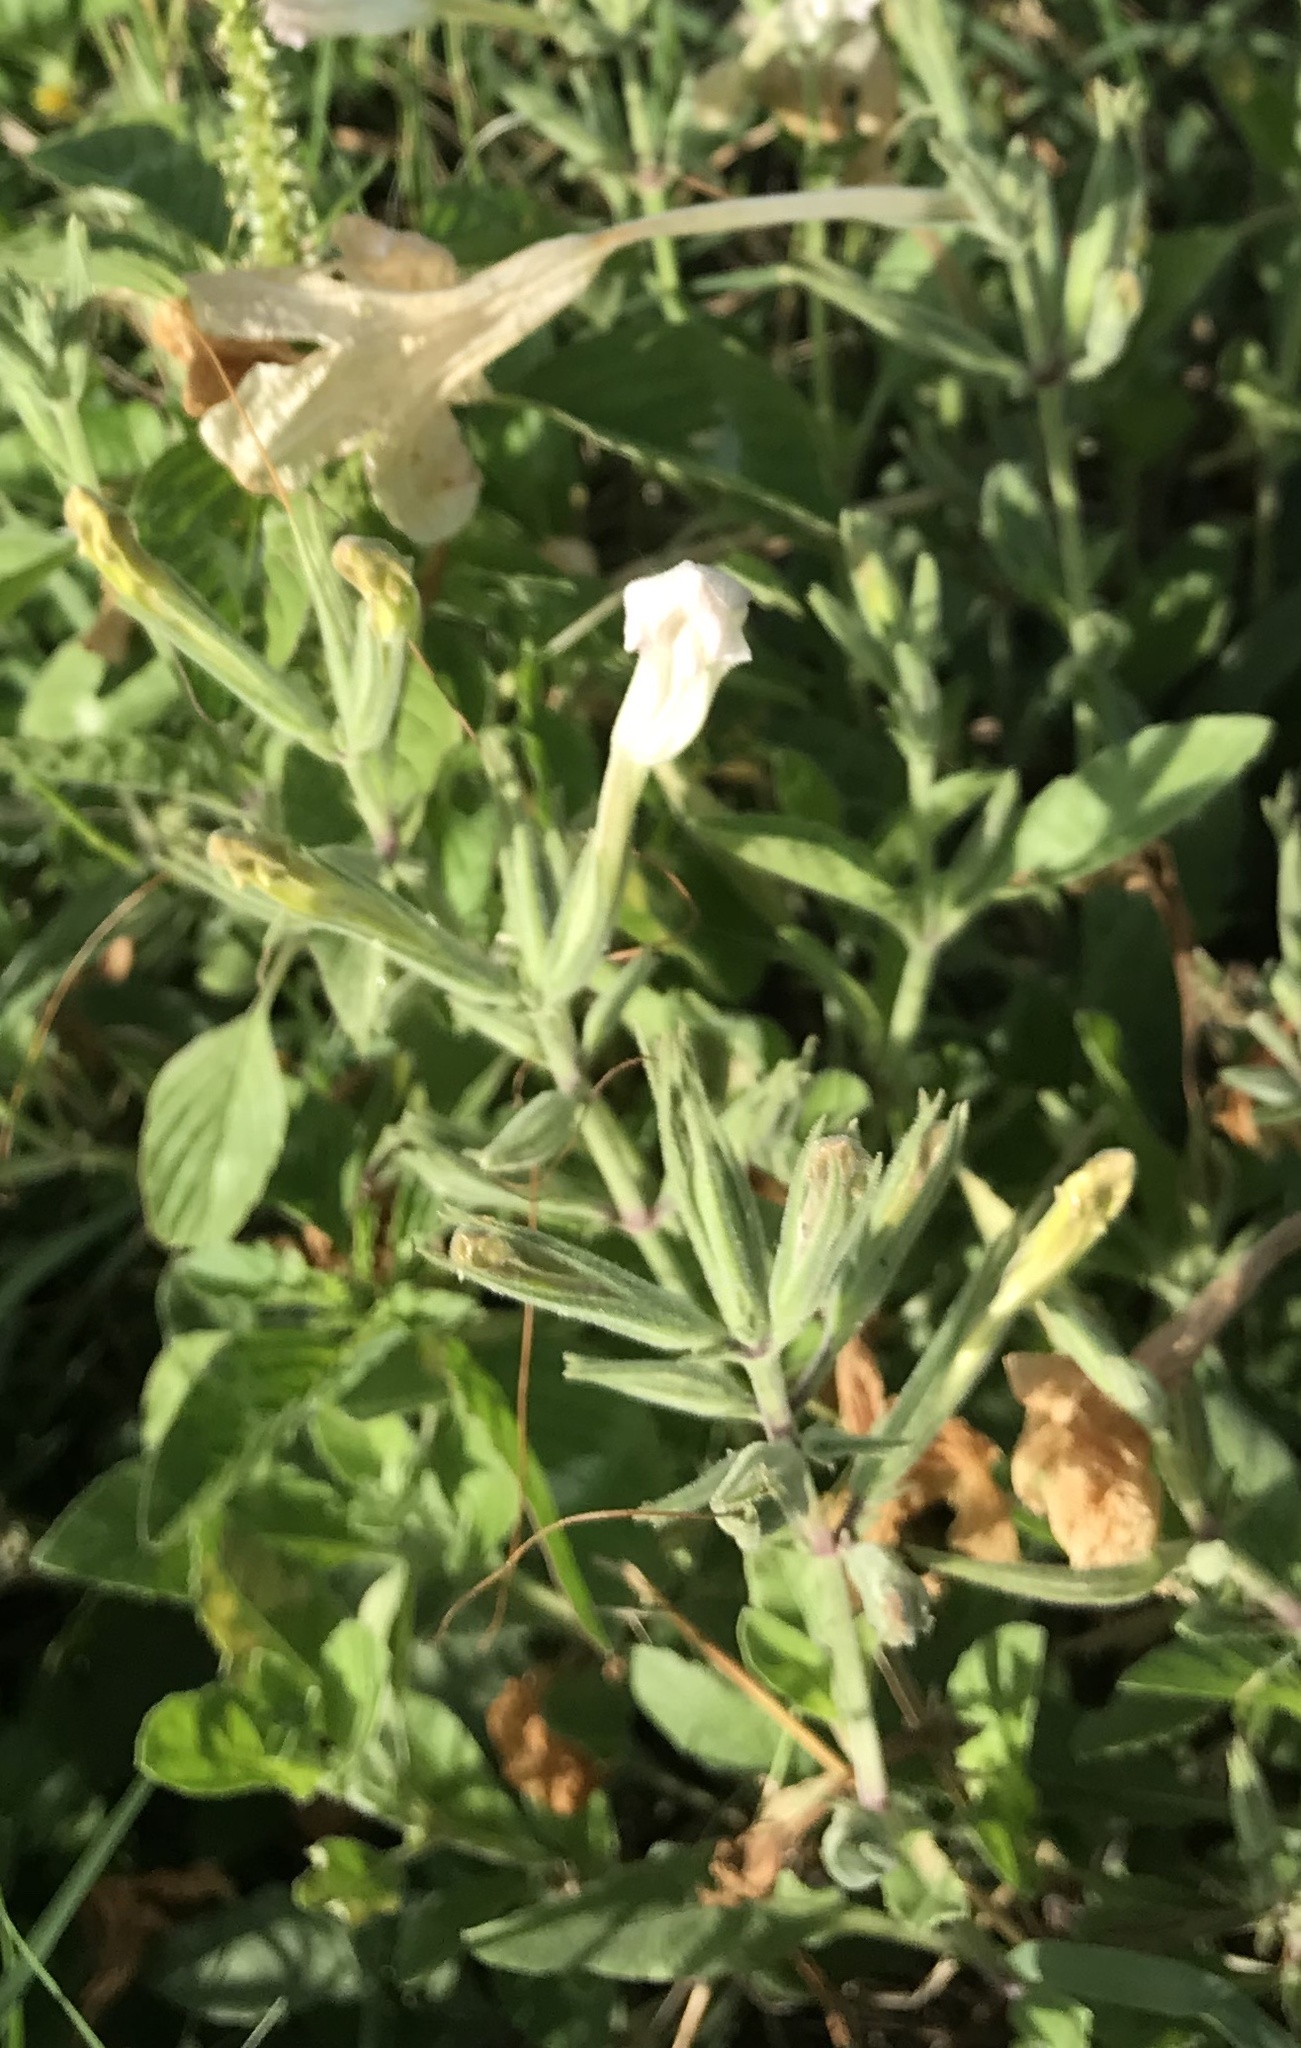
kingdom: Plantae
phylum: Tracheophyta
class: Magnoliopsida
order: Lamiales
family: Acanthaceae
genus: Ruellia
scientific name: Ruellia metziae
